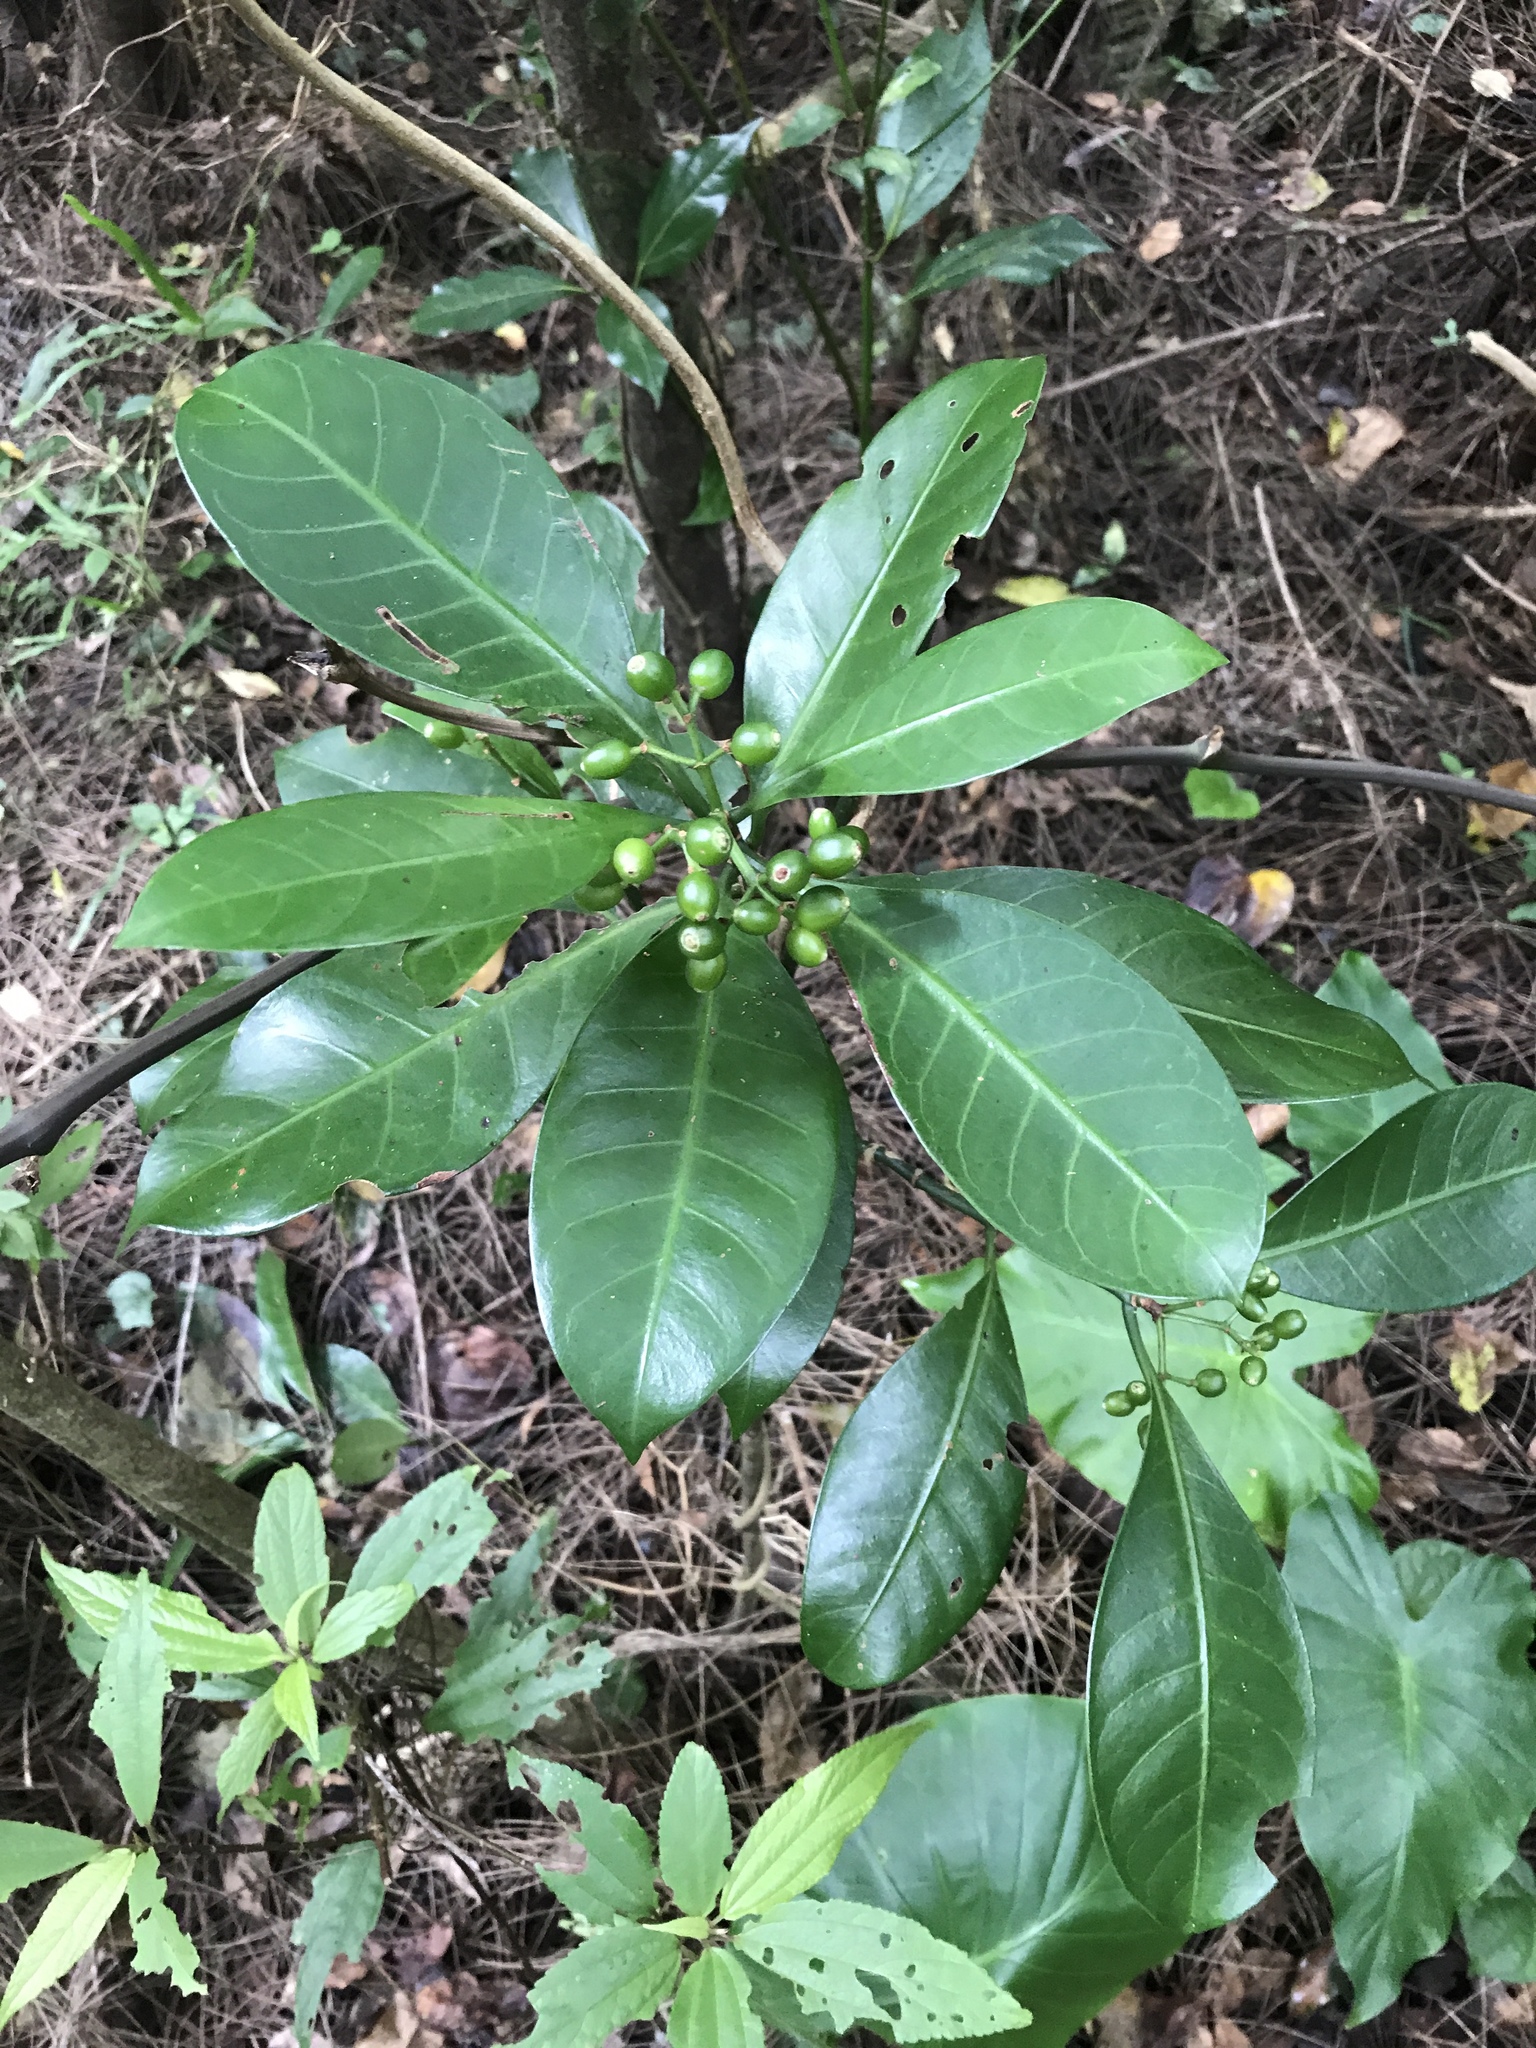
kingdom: Plantae
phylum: Tracheophyta
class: Magnoliopsida
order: Gentianales
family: Rubiaceae
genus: Psychotria
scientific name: Psychotria manillensis
